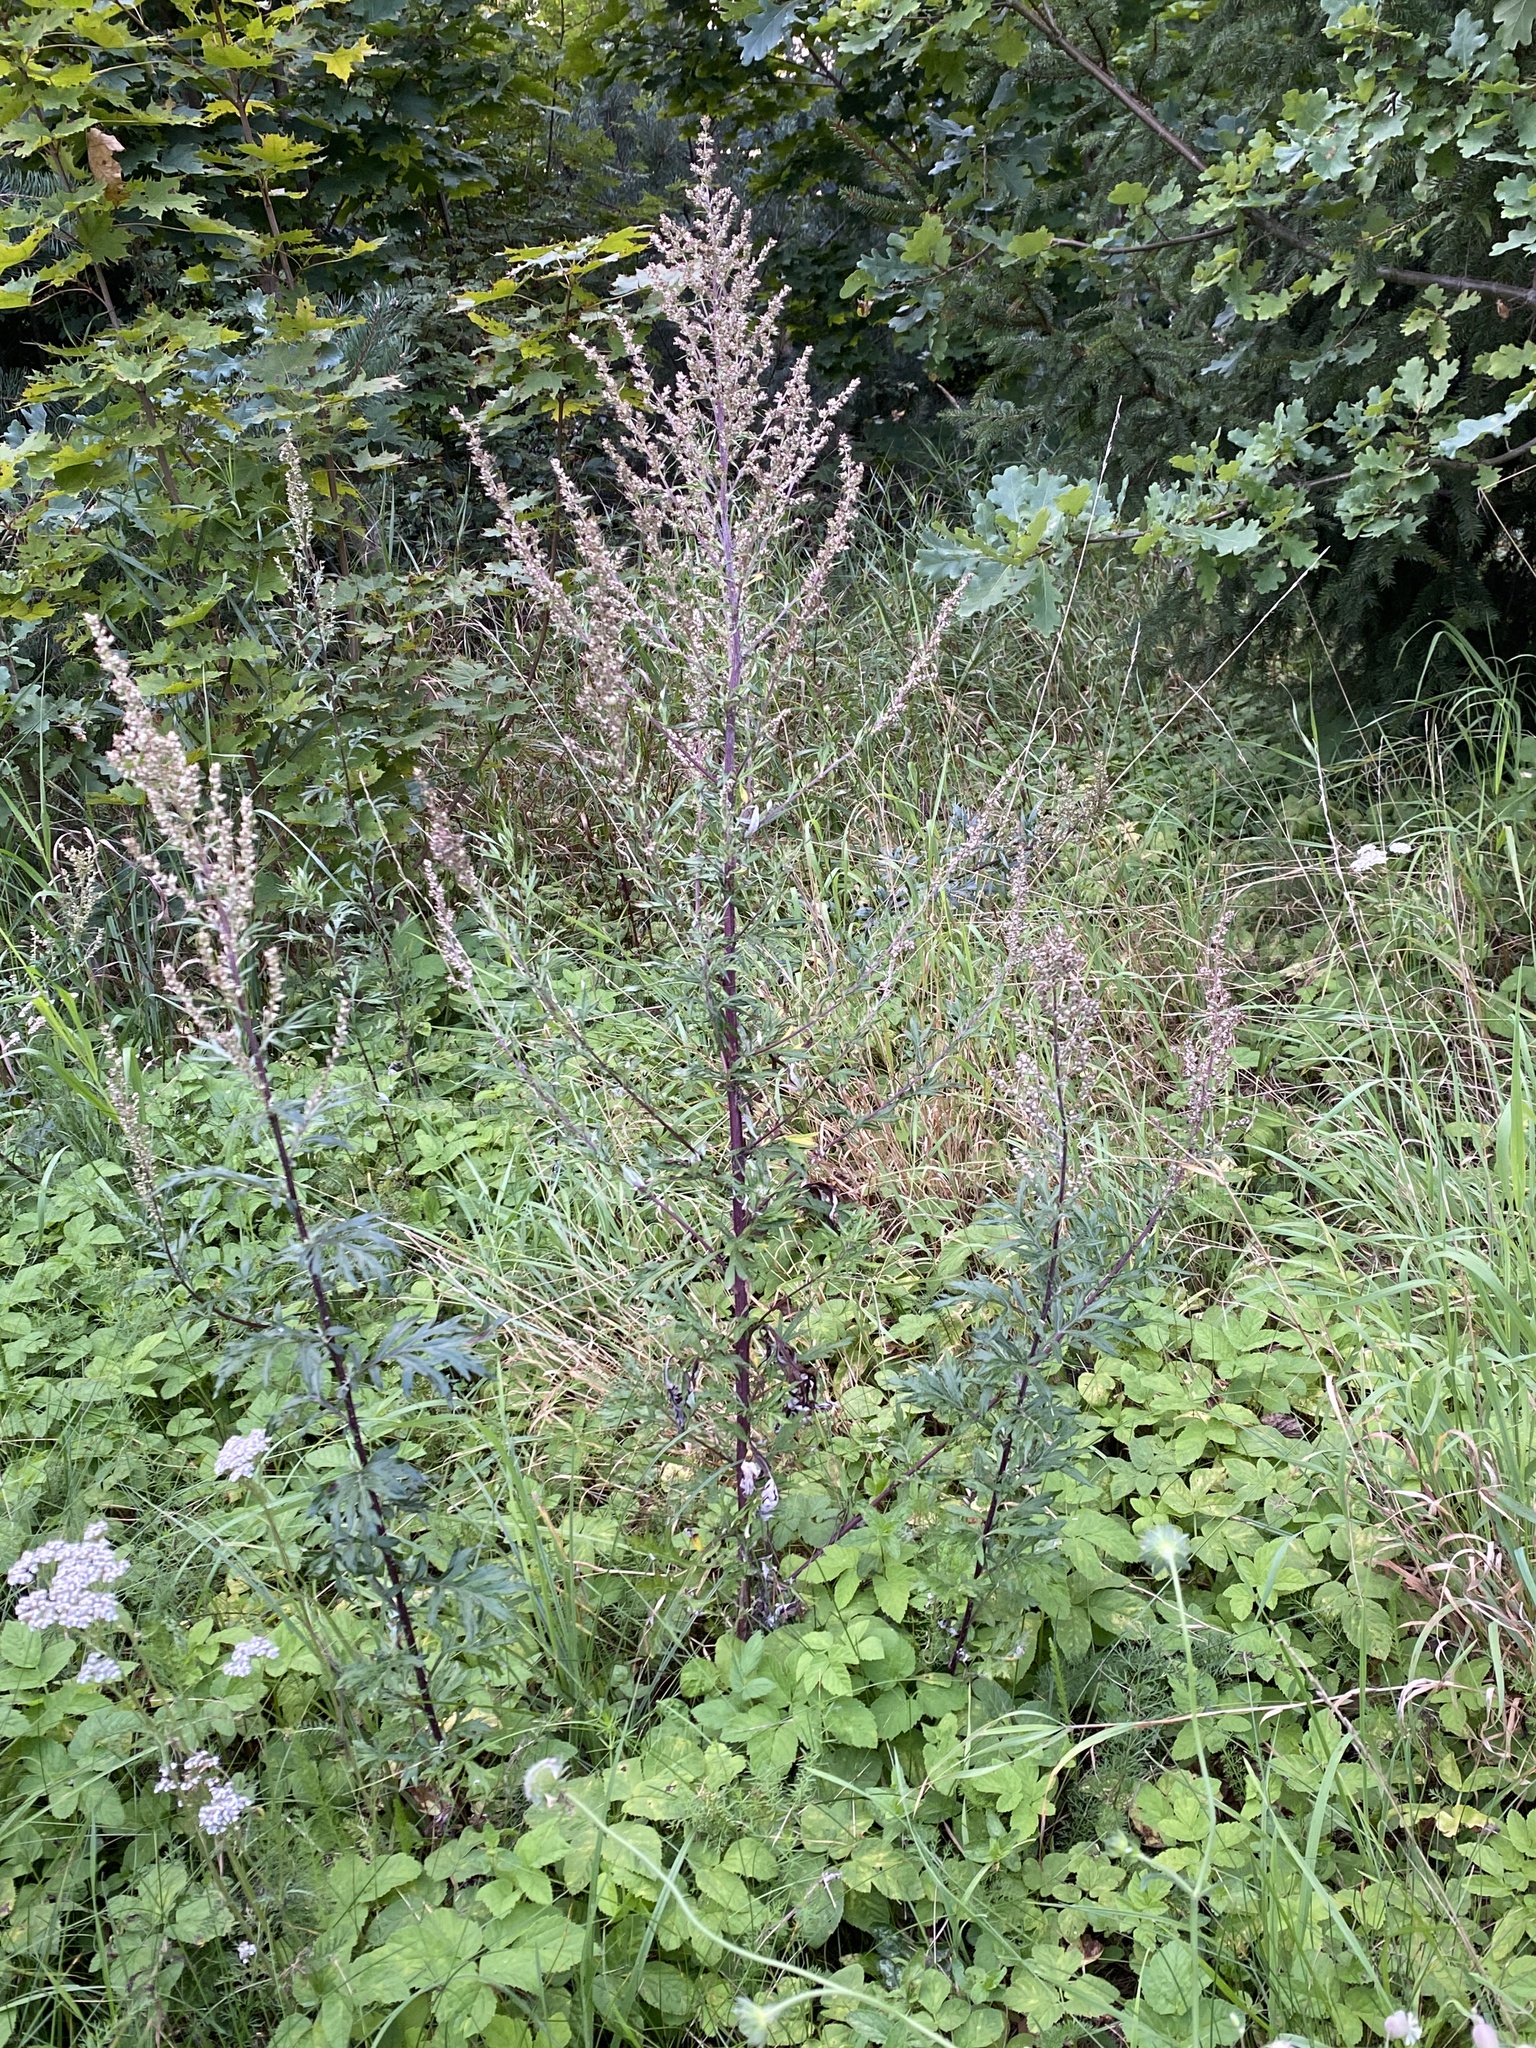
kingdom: Plantae
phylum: Tracheophyta
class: Magnoliopsida
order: Asterales
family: Asteraceae
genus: Artemisia
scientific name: Artemisia vulgaris
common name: Mugwort
